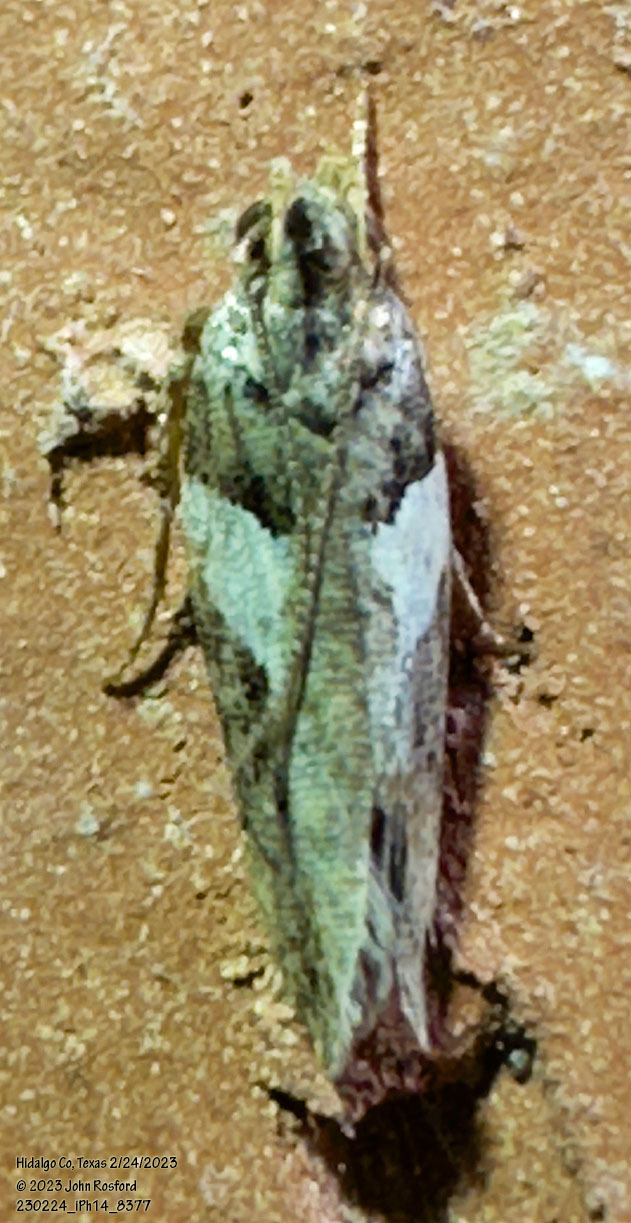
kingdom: Animalia
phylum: Arthropoda
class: Insecta
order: Lepidoptera
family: Gelechiidae
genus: Friseria
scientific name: Friseria acaciella
